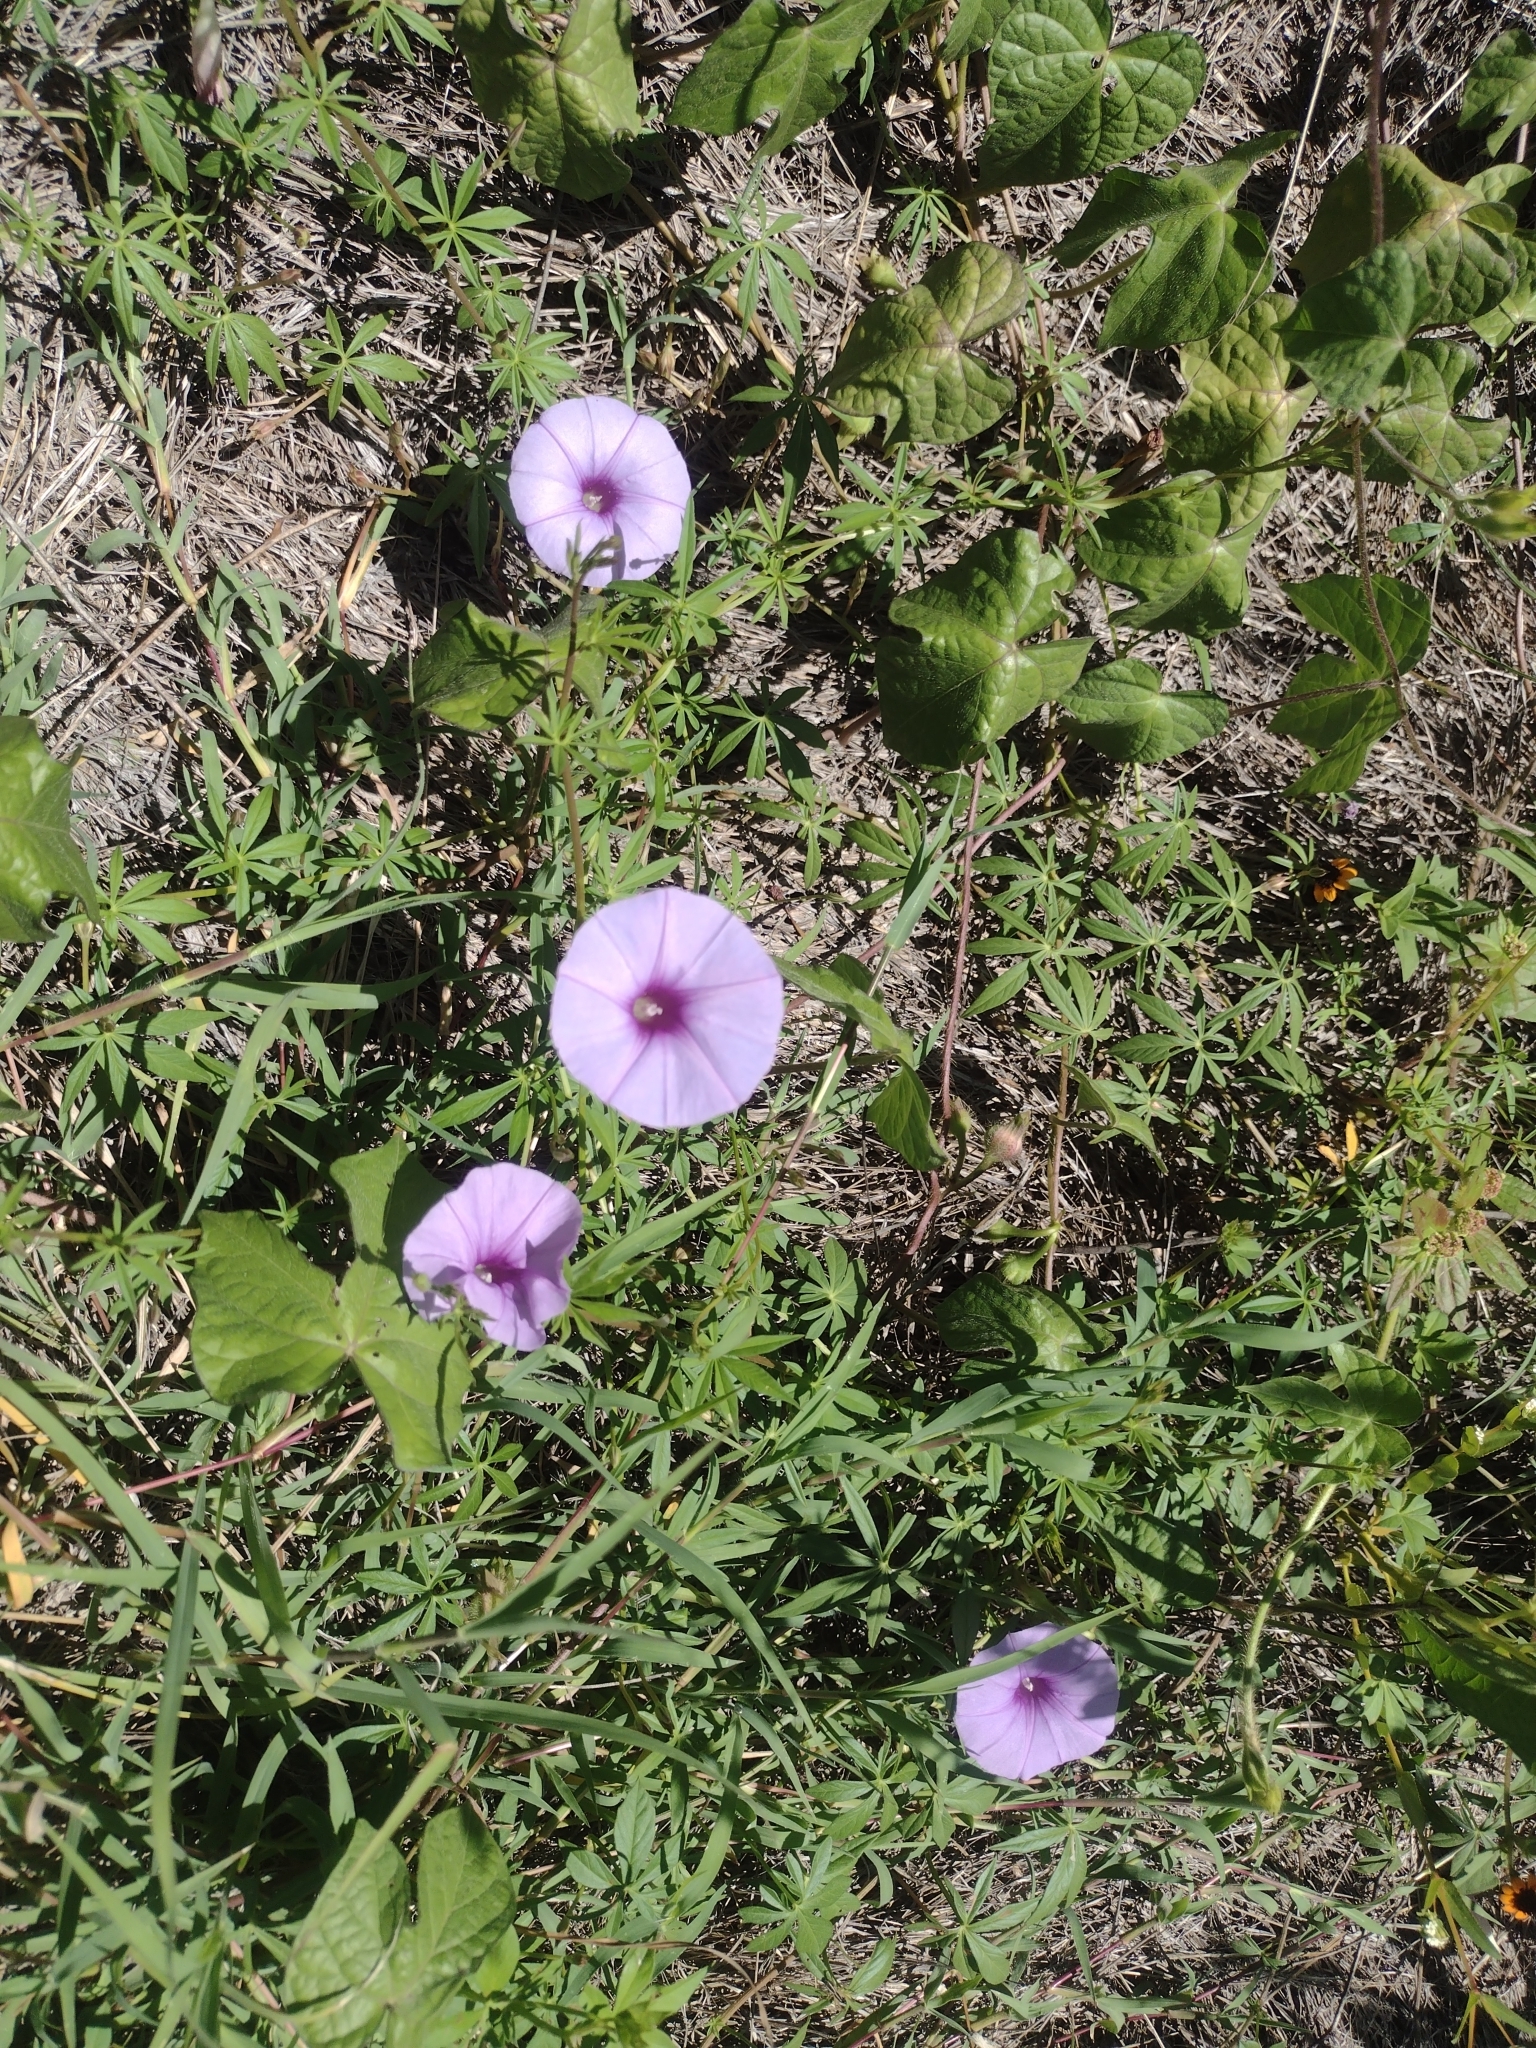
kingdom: Plantae
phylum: Tracheophyta
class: Magnoliopsida
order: Solanales
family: Convolvulaceae
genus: Ipomoea
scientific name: Ipomoea ternifolia
